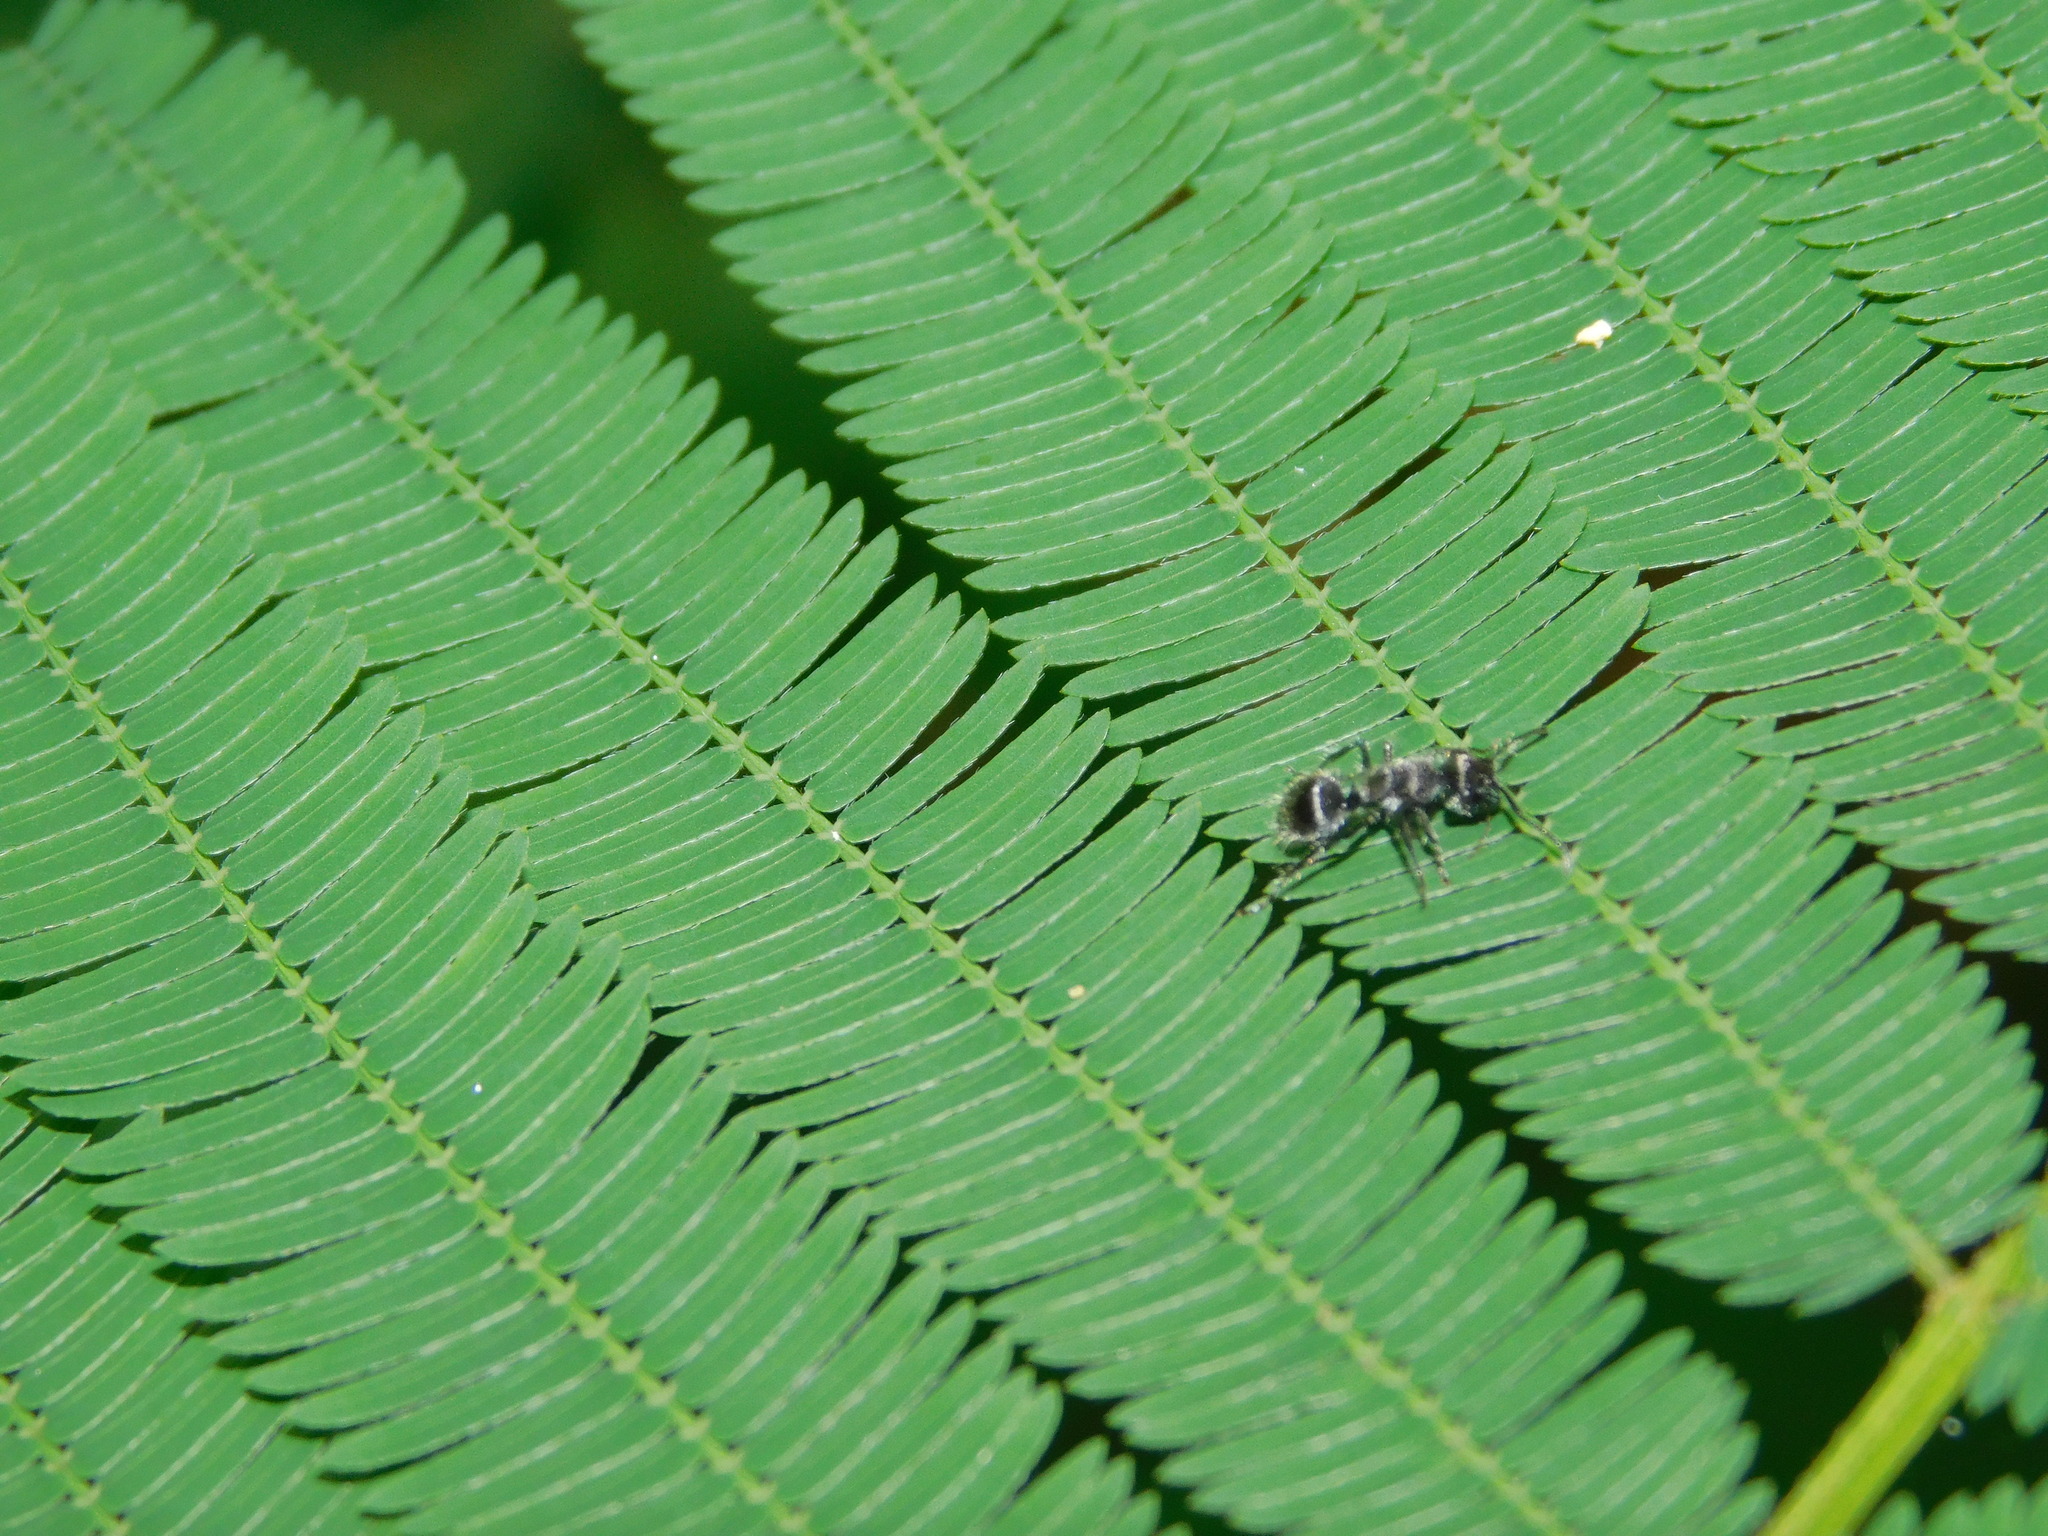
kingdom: Animalia
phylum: Arthropoda
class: Insecta
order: Hymenoptera
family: Formicidae
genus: Echinopla
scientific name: Echinopla lineata
